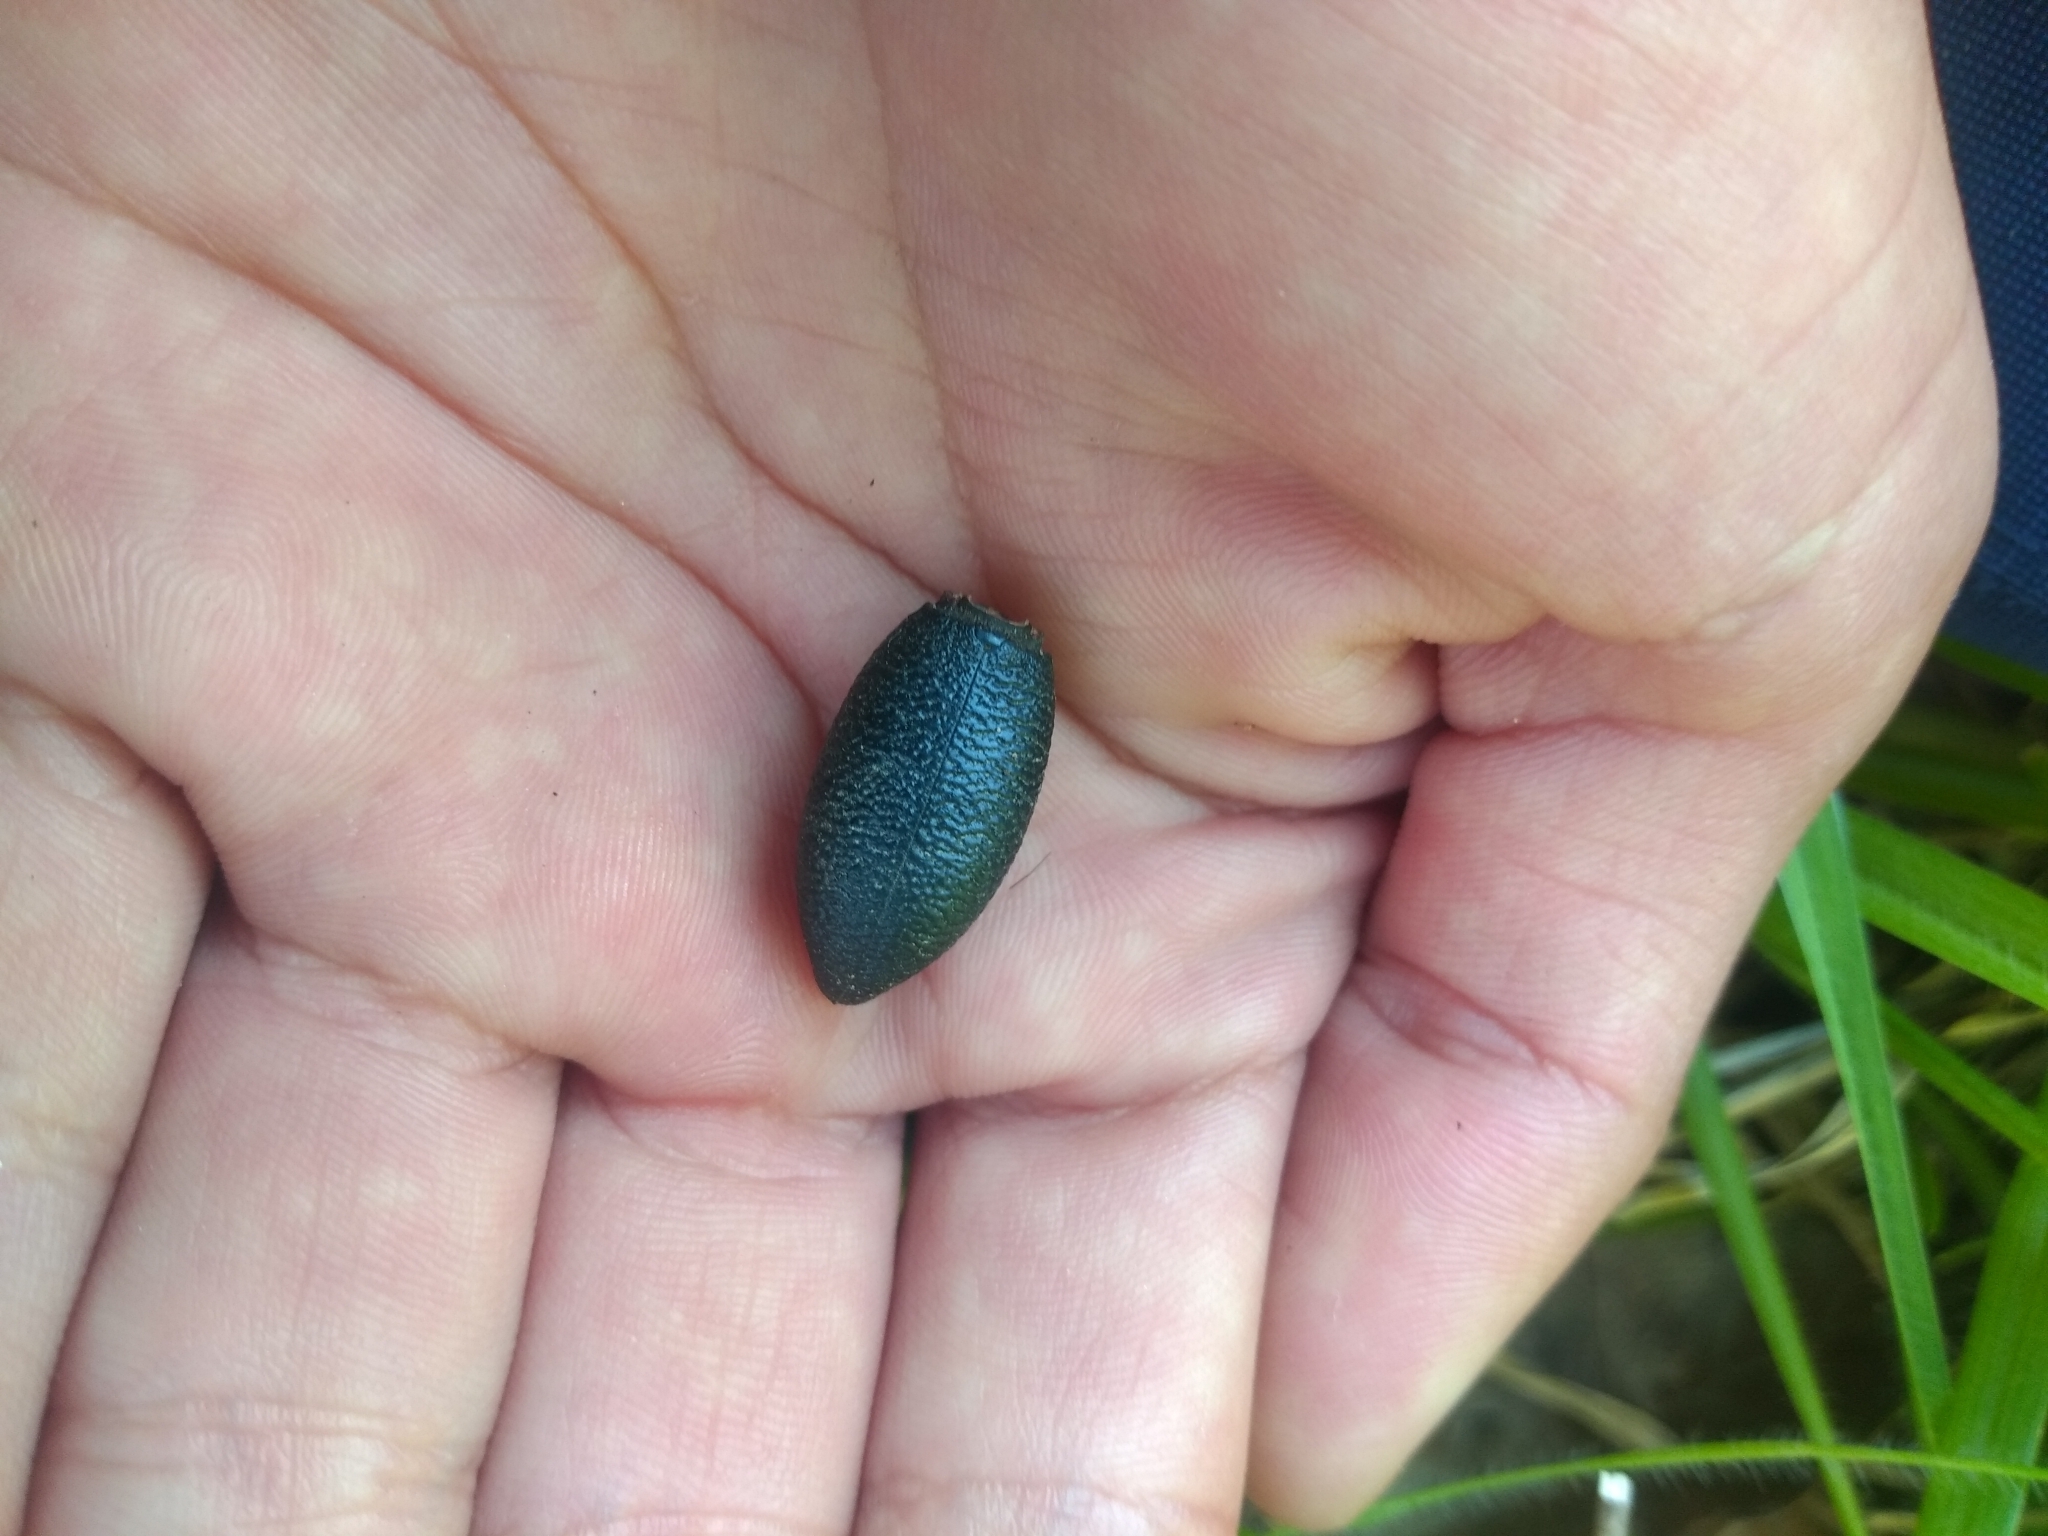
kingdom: Animalia
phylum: Arthropoda
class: Insecta
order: Coleoptera
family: Tenebrionidae
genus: Eleodes
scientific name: Eleodes ruida
